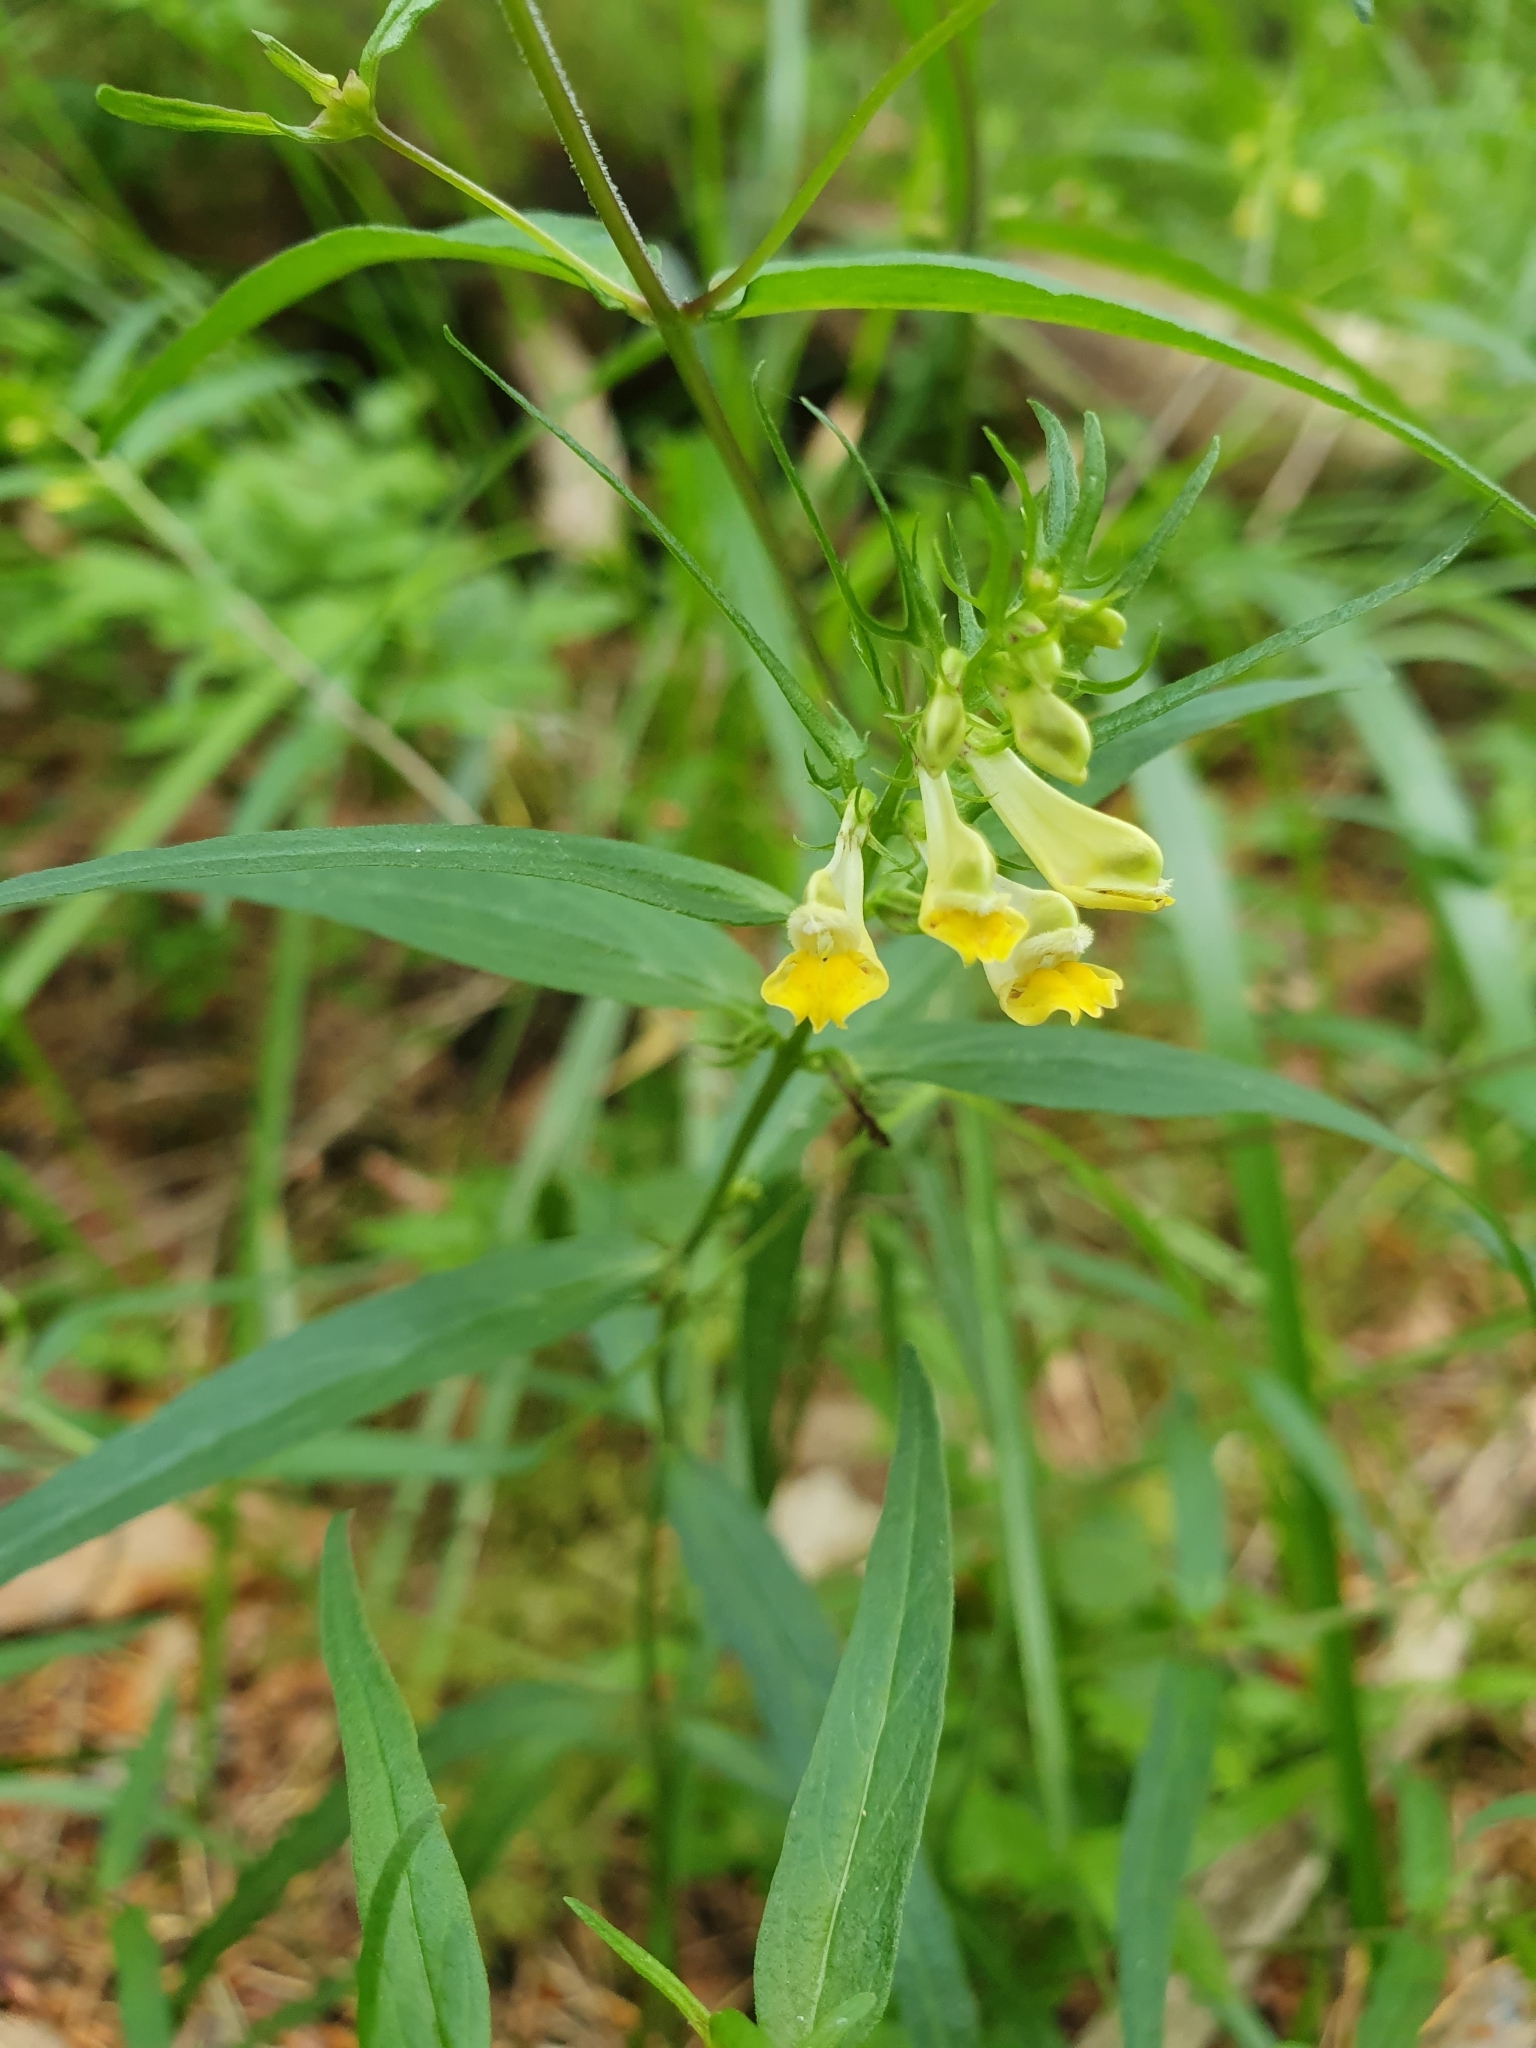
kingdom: Plantae
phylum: Tracheophyta
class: Magnoliopsida
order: Lamiales
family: Orobanchaceae
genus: Melampyrum
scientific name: Melampyrum pratense
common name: Common cow-wheat
